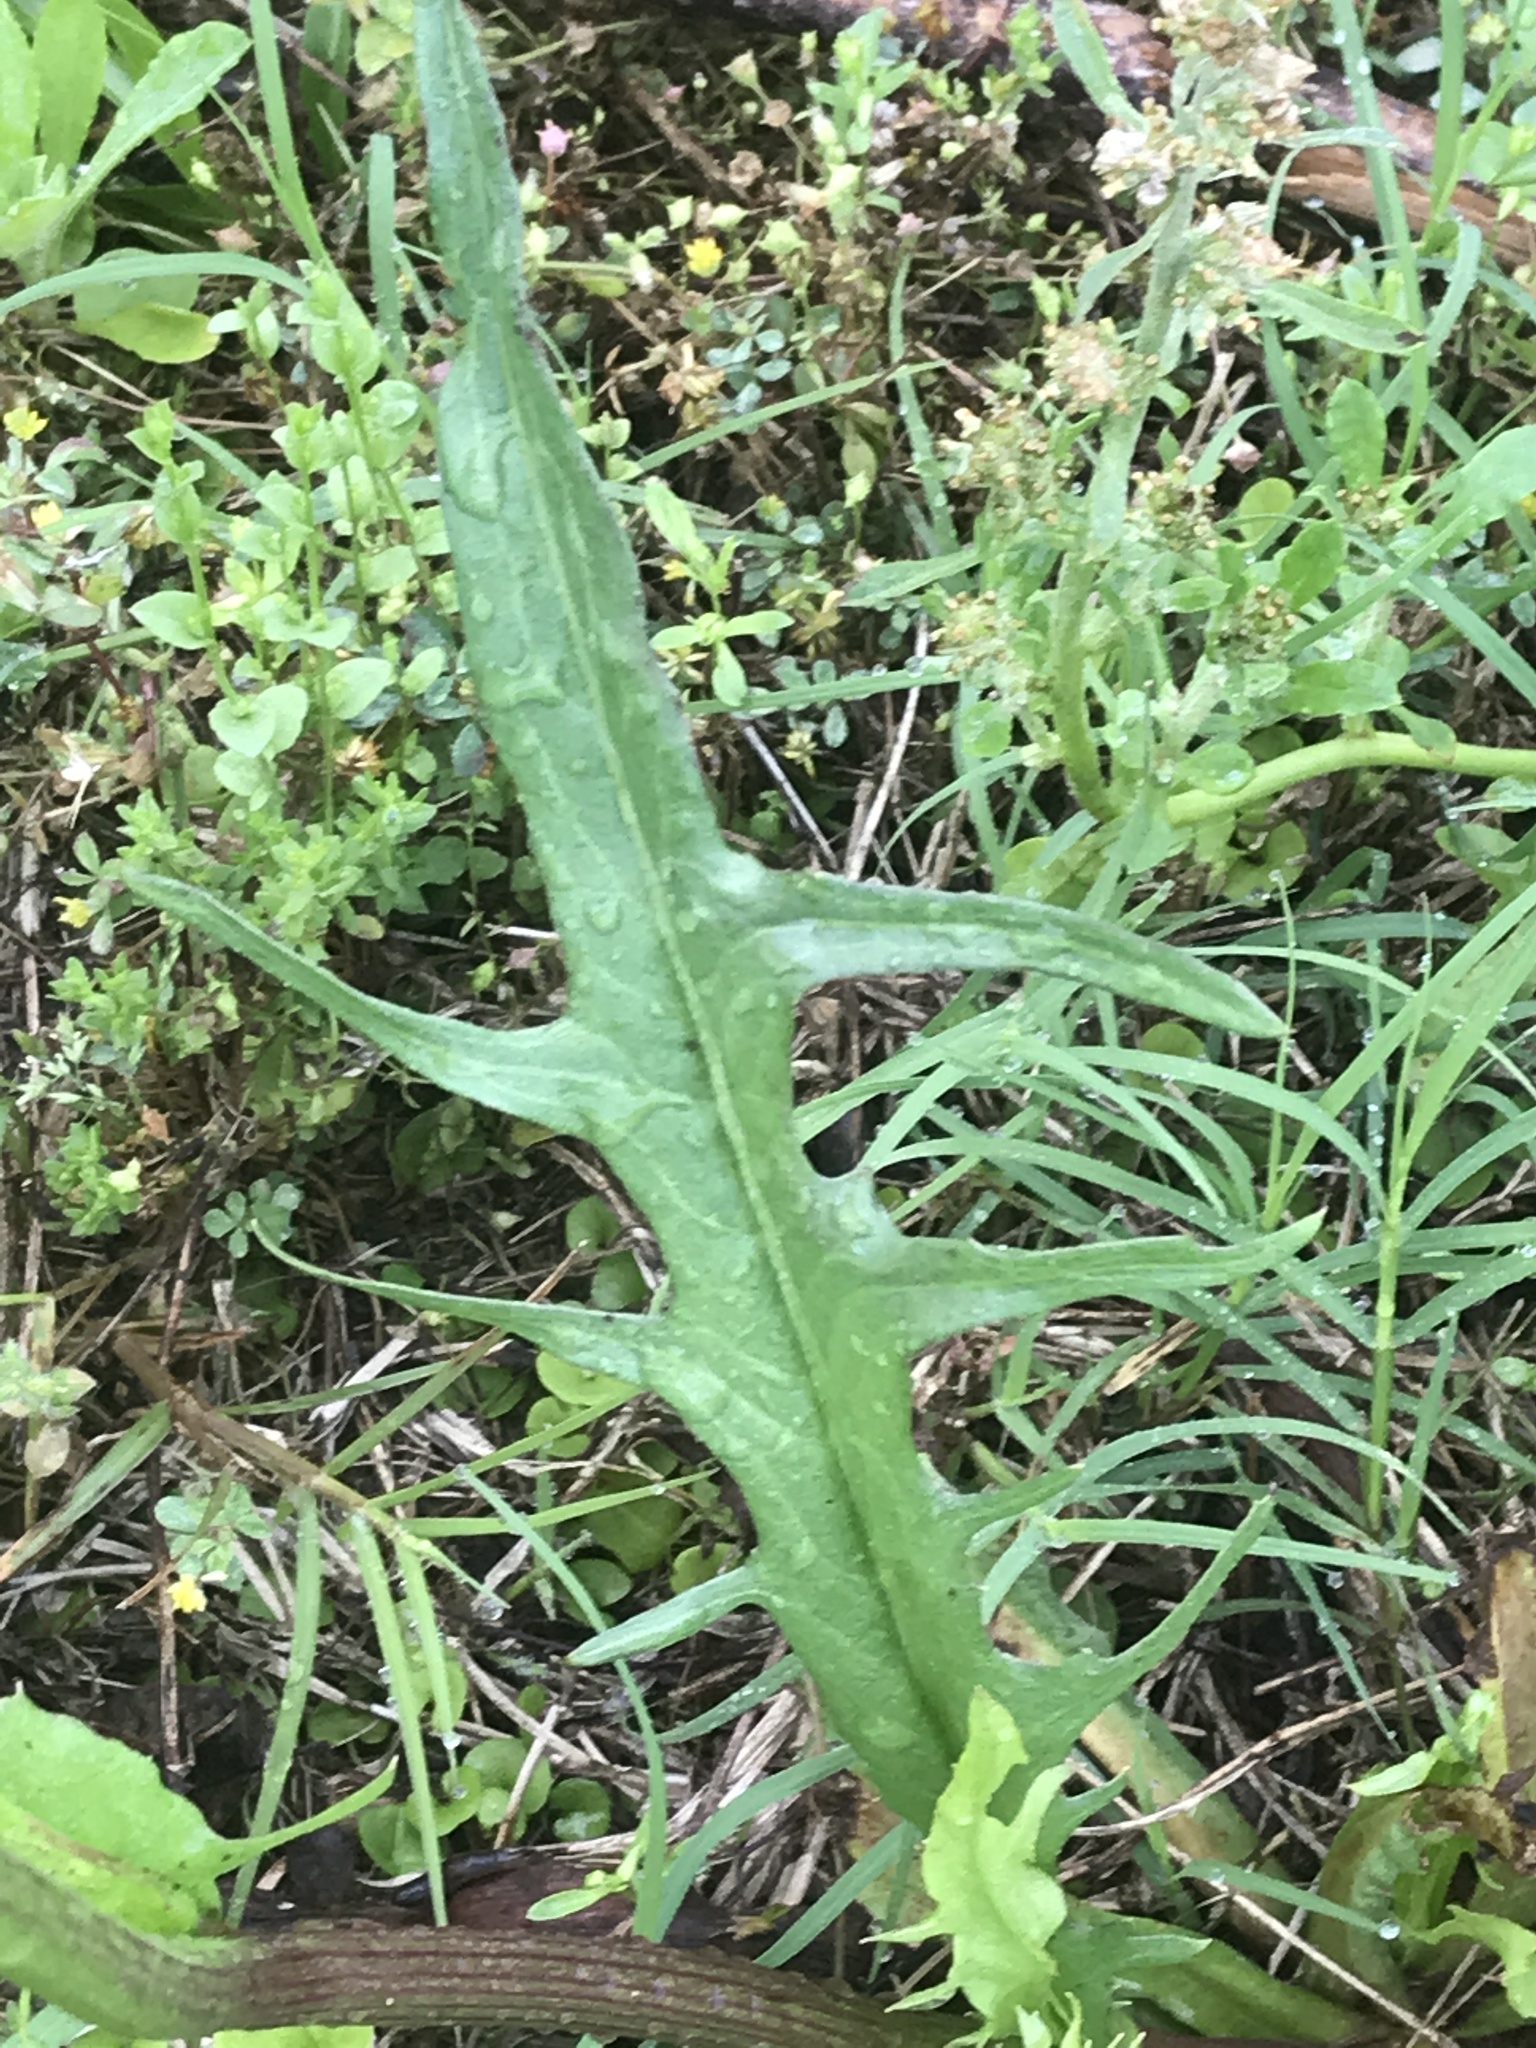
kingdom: Plantae
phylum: Tracheophyta
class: Magnoliopsida
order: Asterales
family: Asteraceae
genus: Pyrrhopappus
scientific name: Pyrrhopappus carolinianus
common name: Carolina desert-chicory
